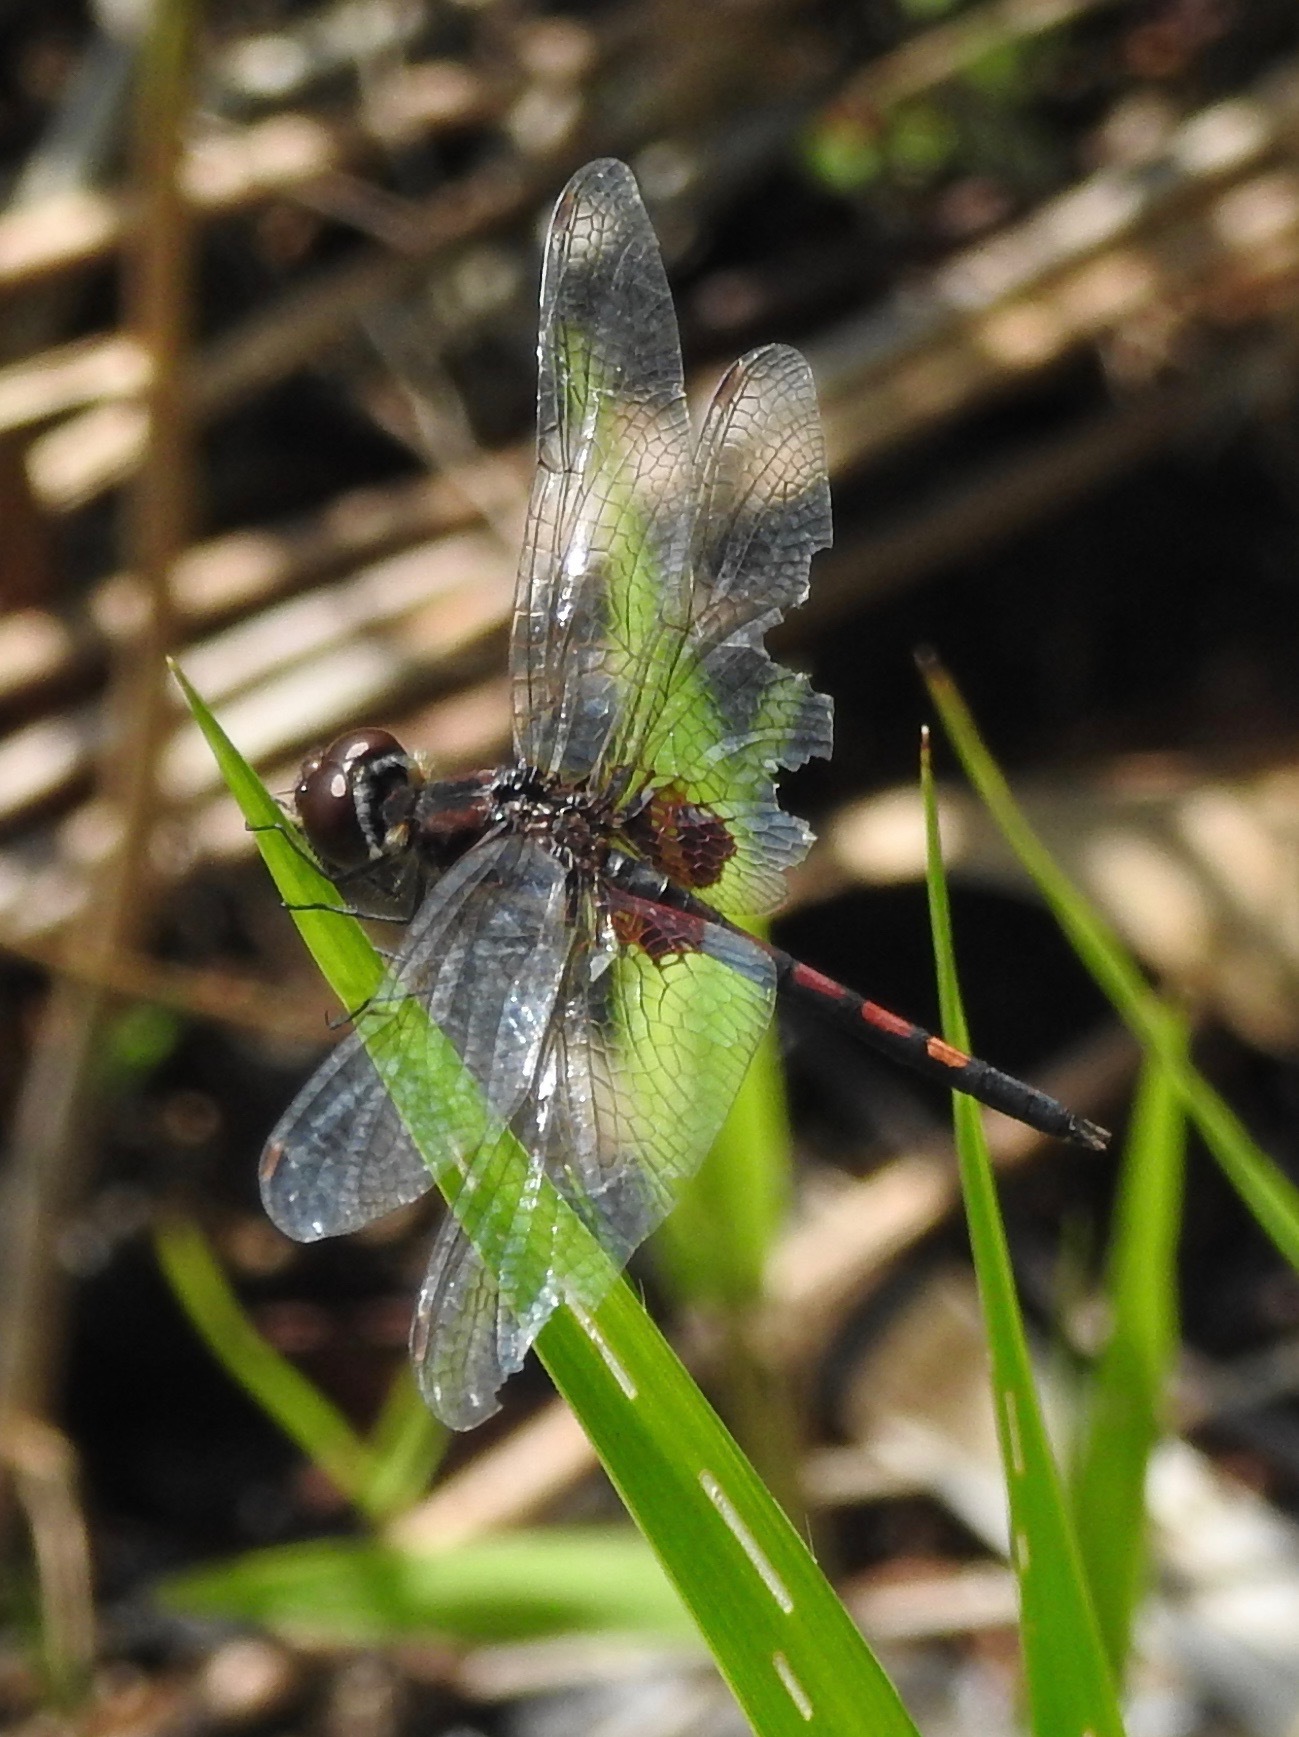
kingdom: Animalia
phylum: Arthropoda
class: Insecta
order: Odonata
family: Libellulidae
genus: Celithemis
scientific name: Celithemis ornata
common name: Ornate pennant
